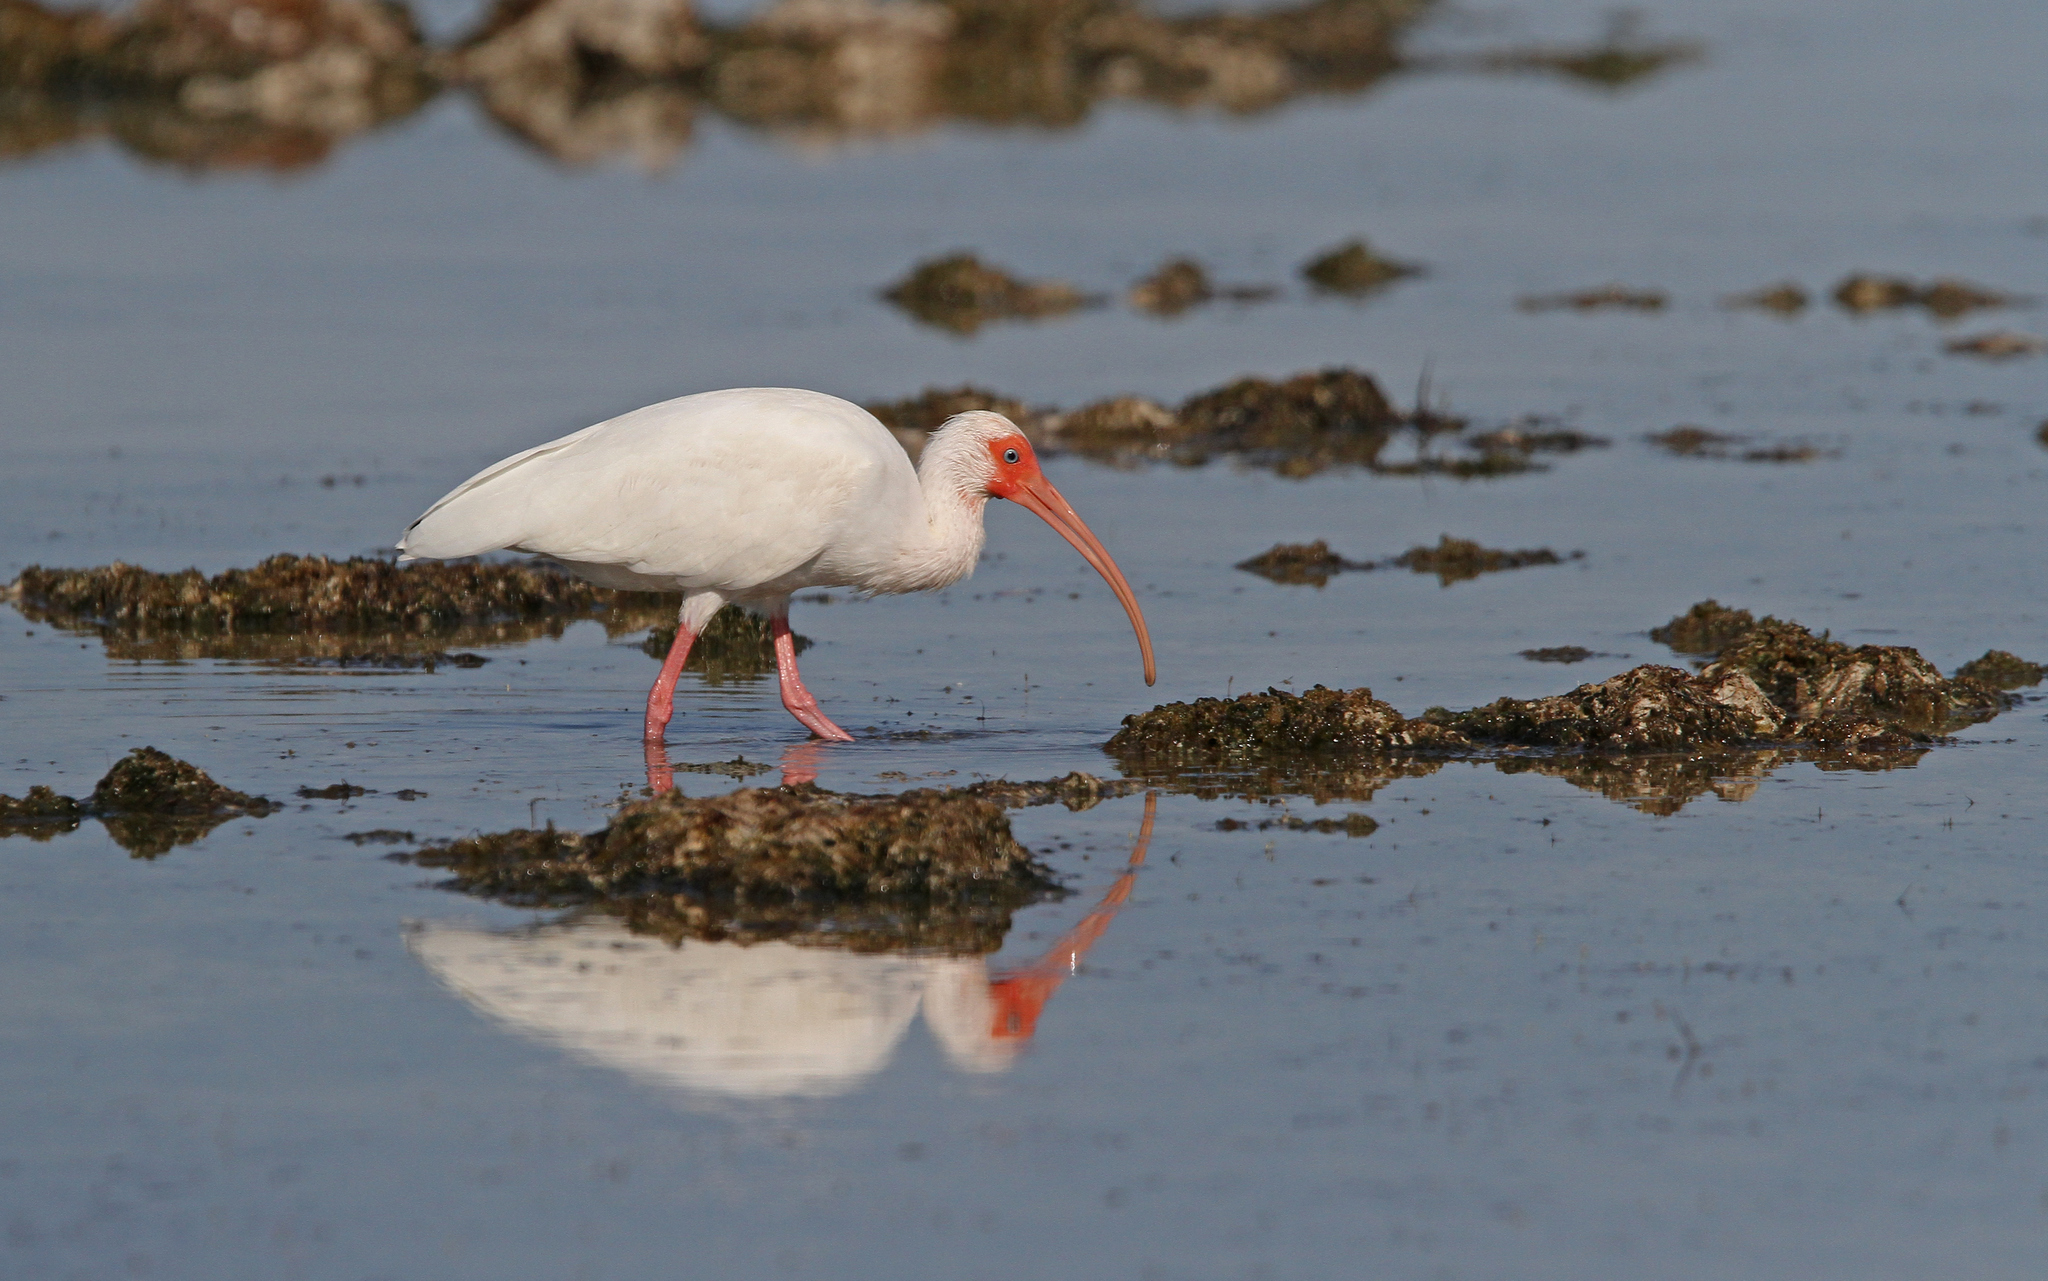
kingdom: Animalia
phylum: Chordata
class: Aves
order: Pelecaniformes
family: Threskiornithidae
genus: Eudocimus
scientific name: Eudocimus albus
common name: White ibis
